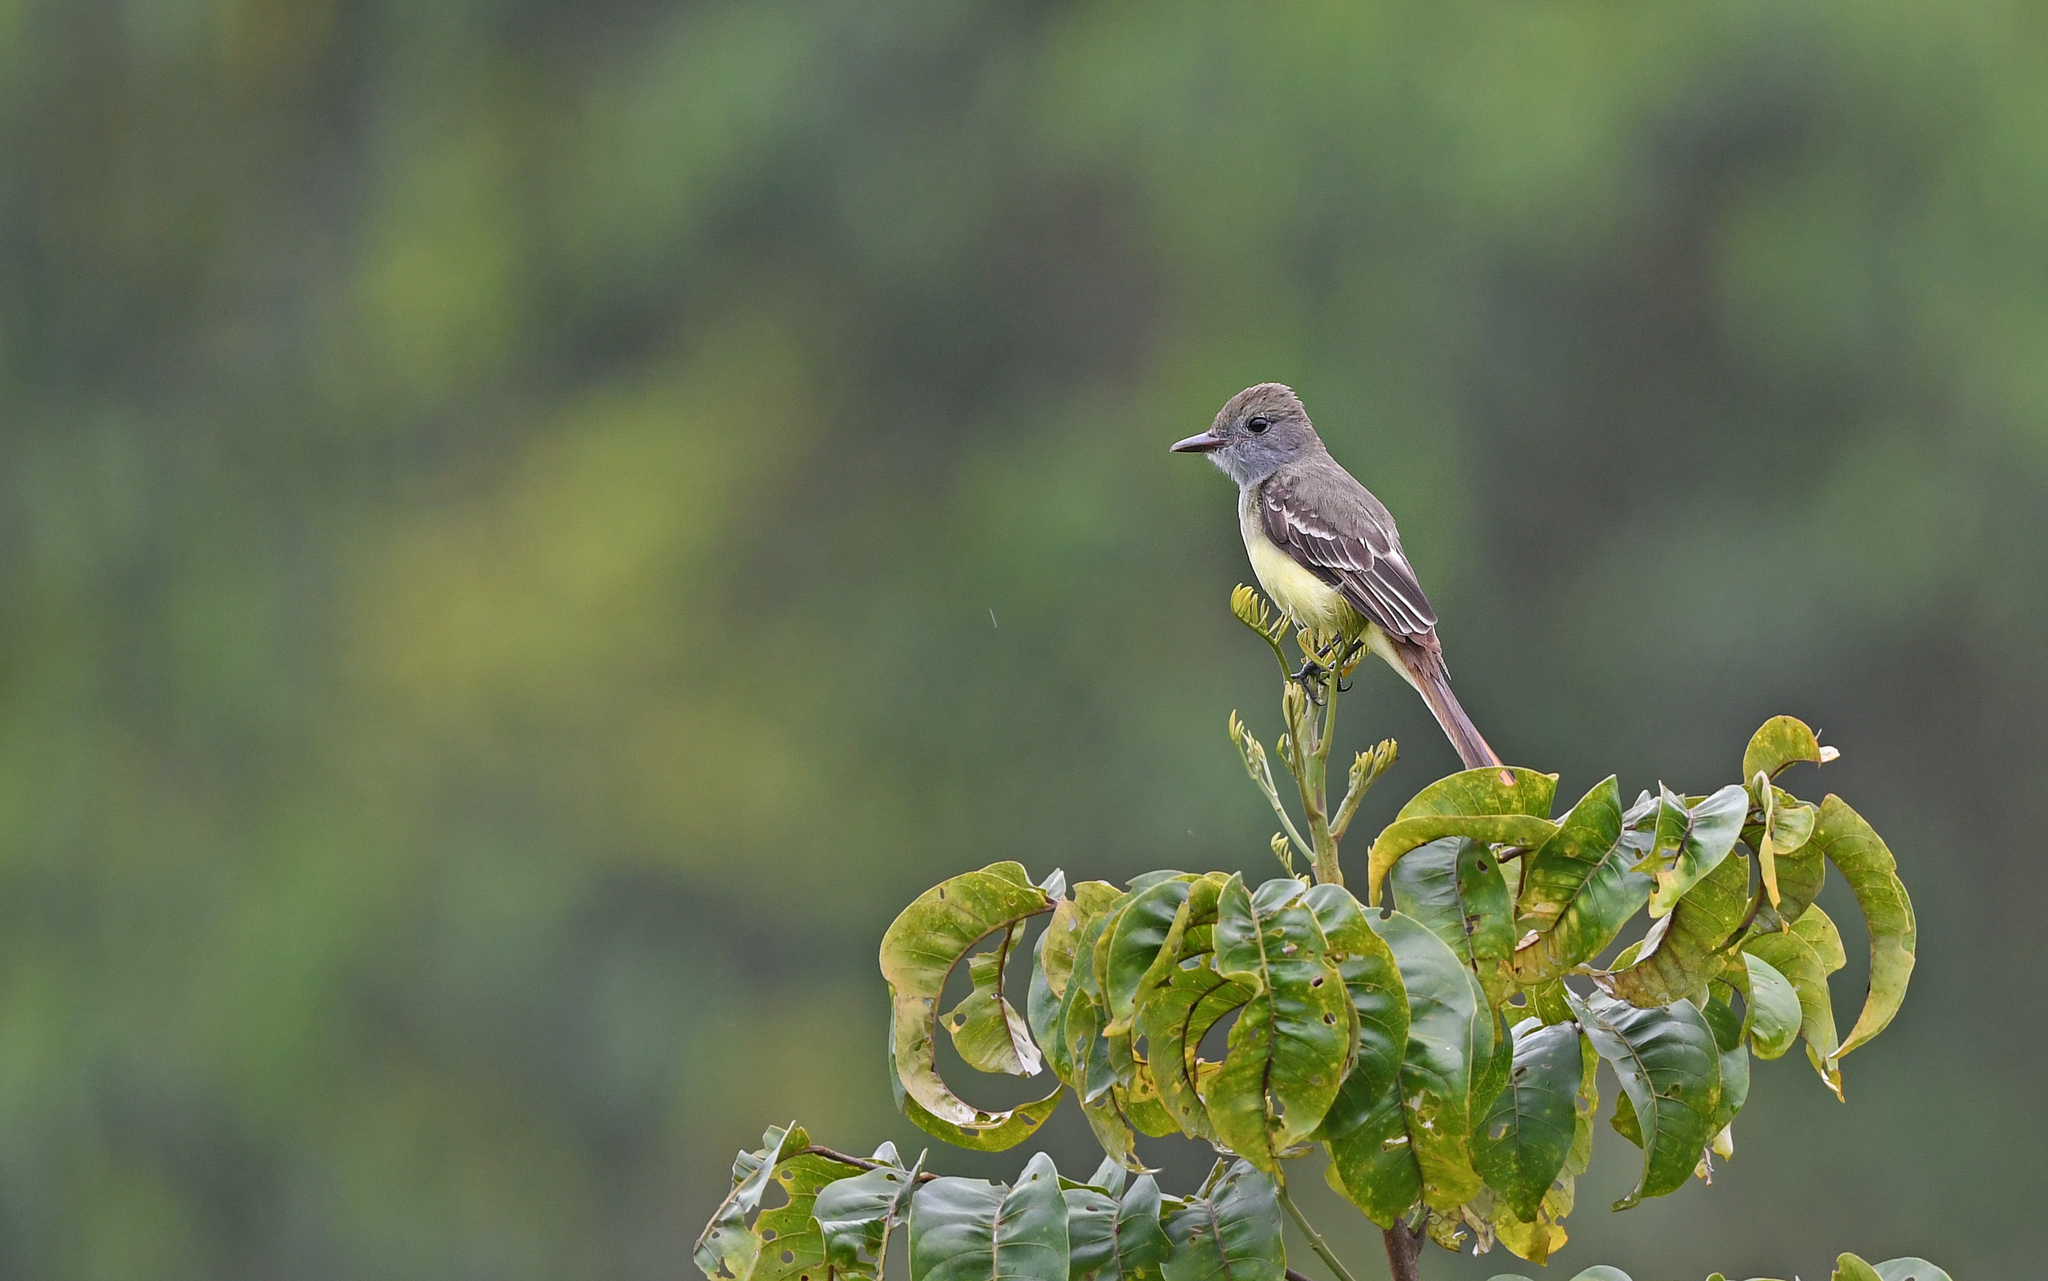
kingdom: Animalia
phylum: Chordata
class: Aves
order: Passeriformes
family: Tyrannidae
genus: Myiarchus
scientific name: Myiarchus crinitus
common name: Great crested flycatcher
